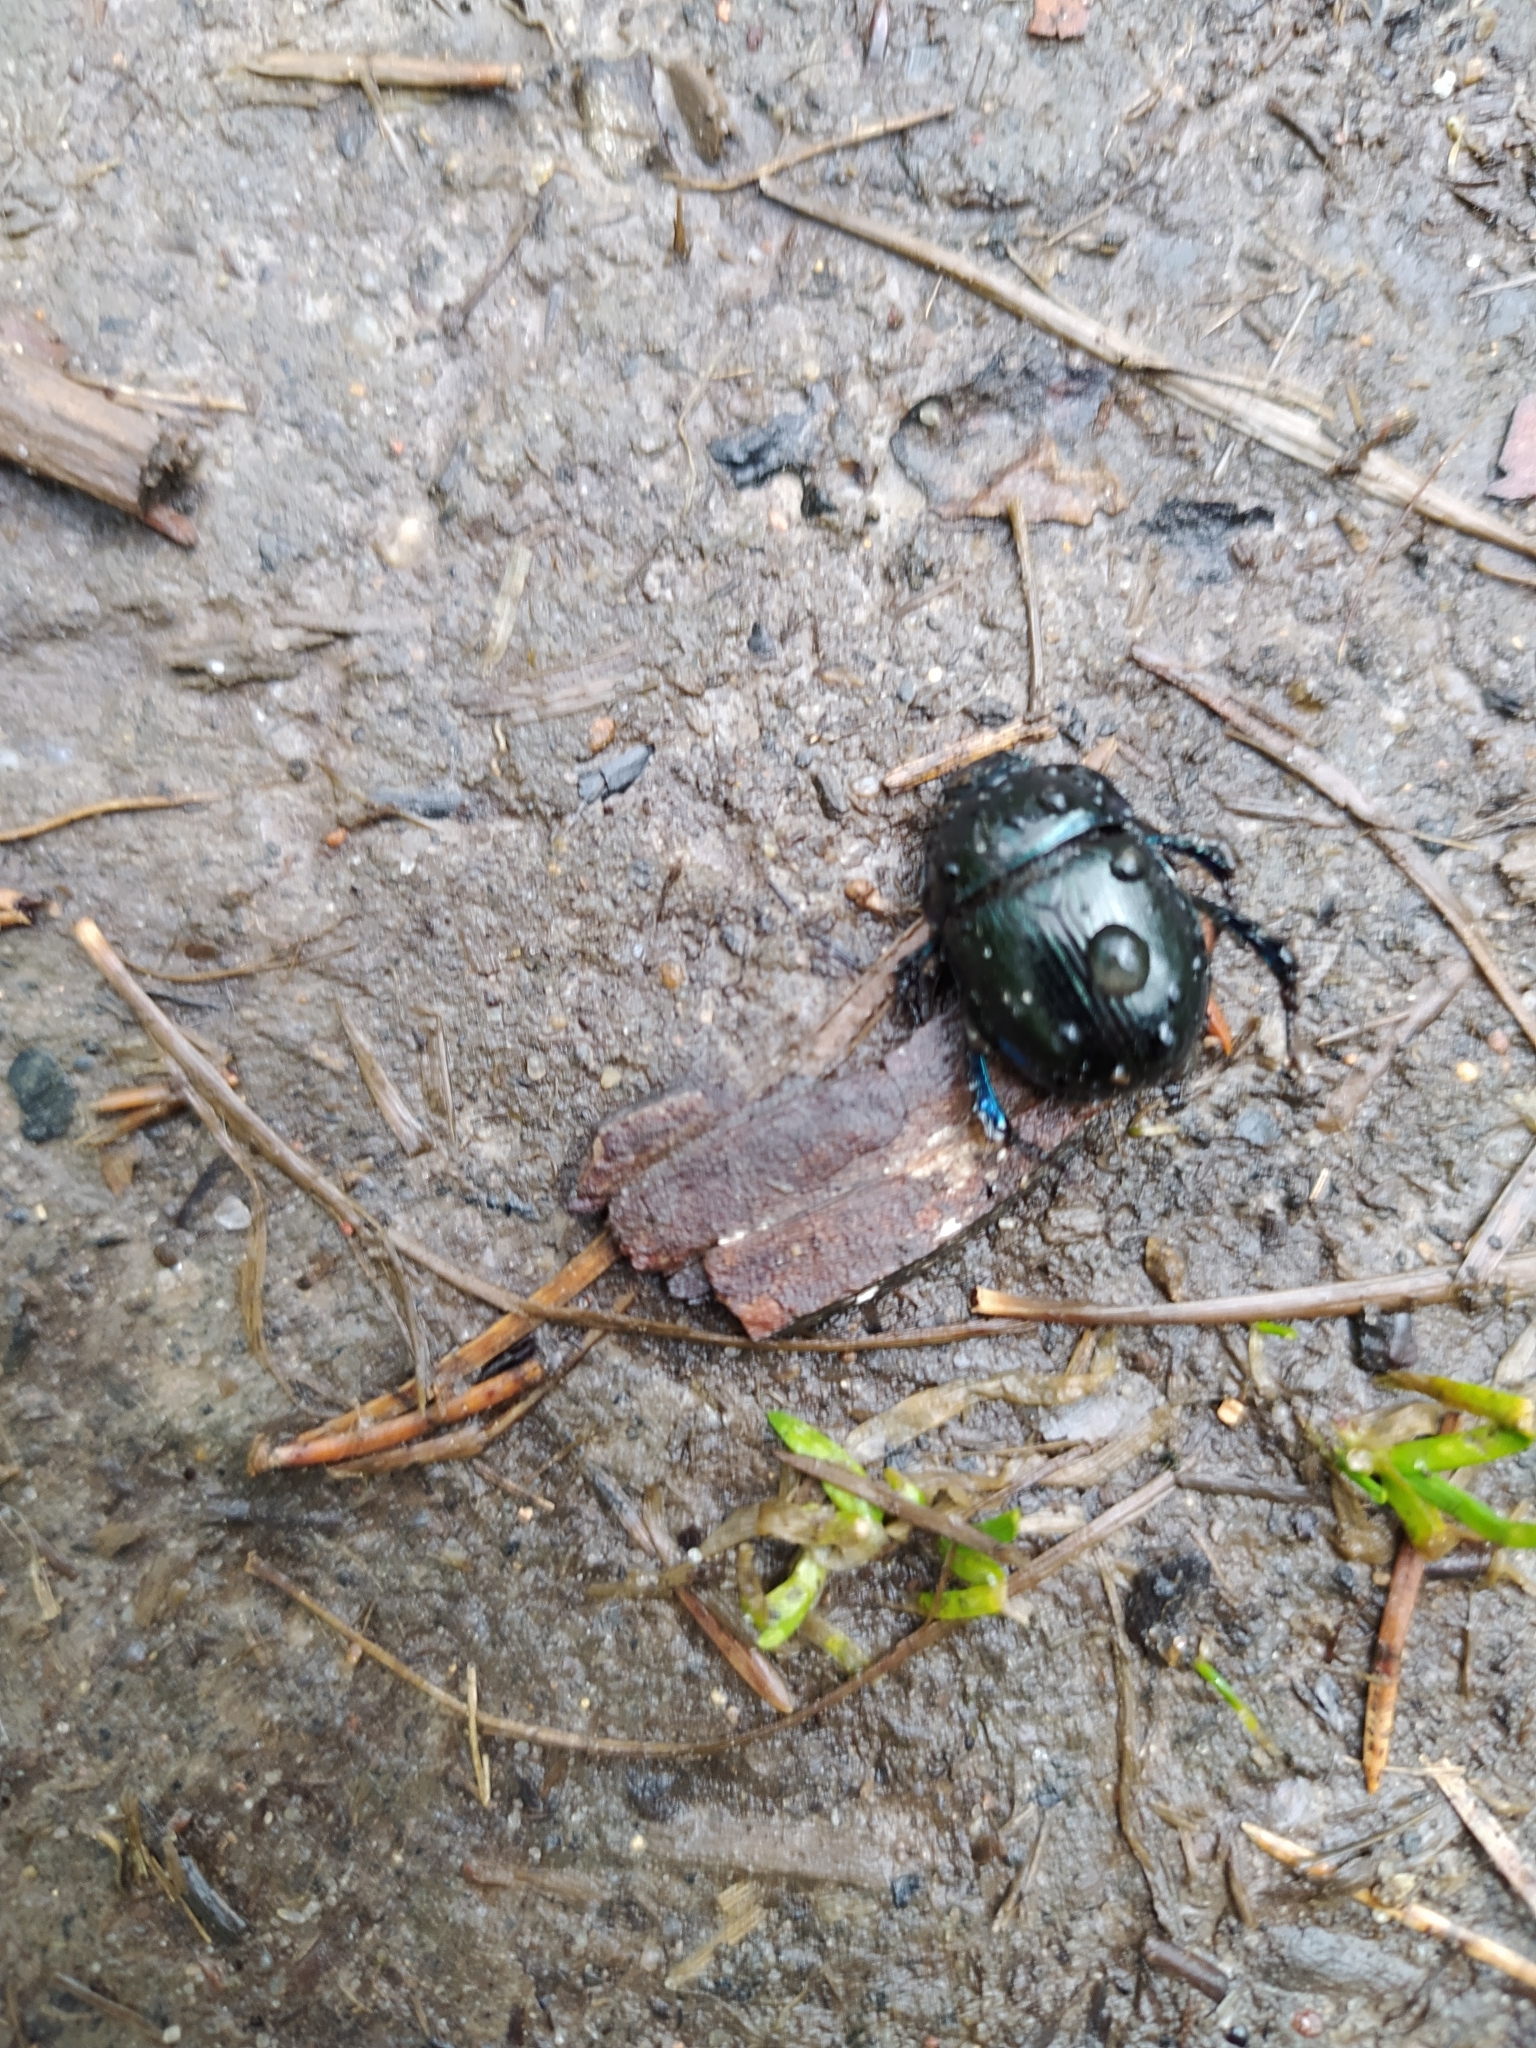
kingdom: Animalia
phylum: Arthropoda
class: Insecta
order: Coleoptera
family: Geotrupidae
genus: Anoplotrupes
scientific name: Anoplotrupes stercorosus
